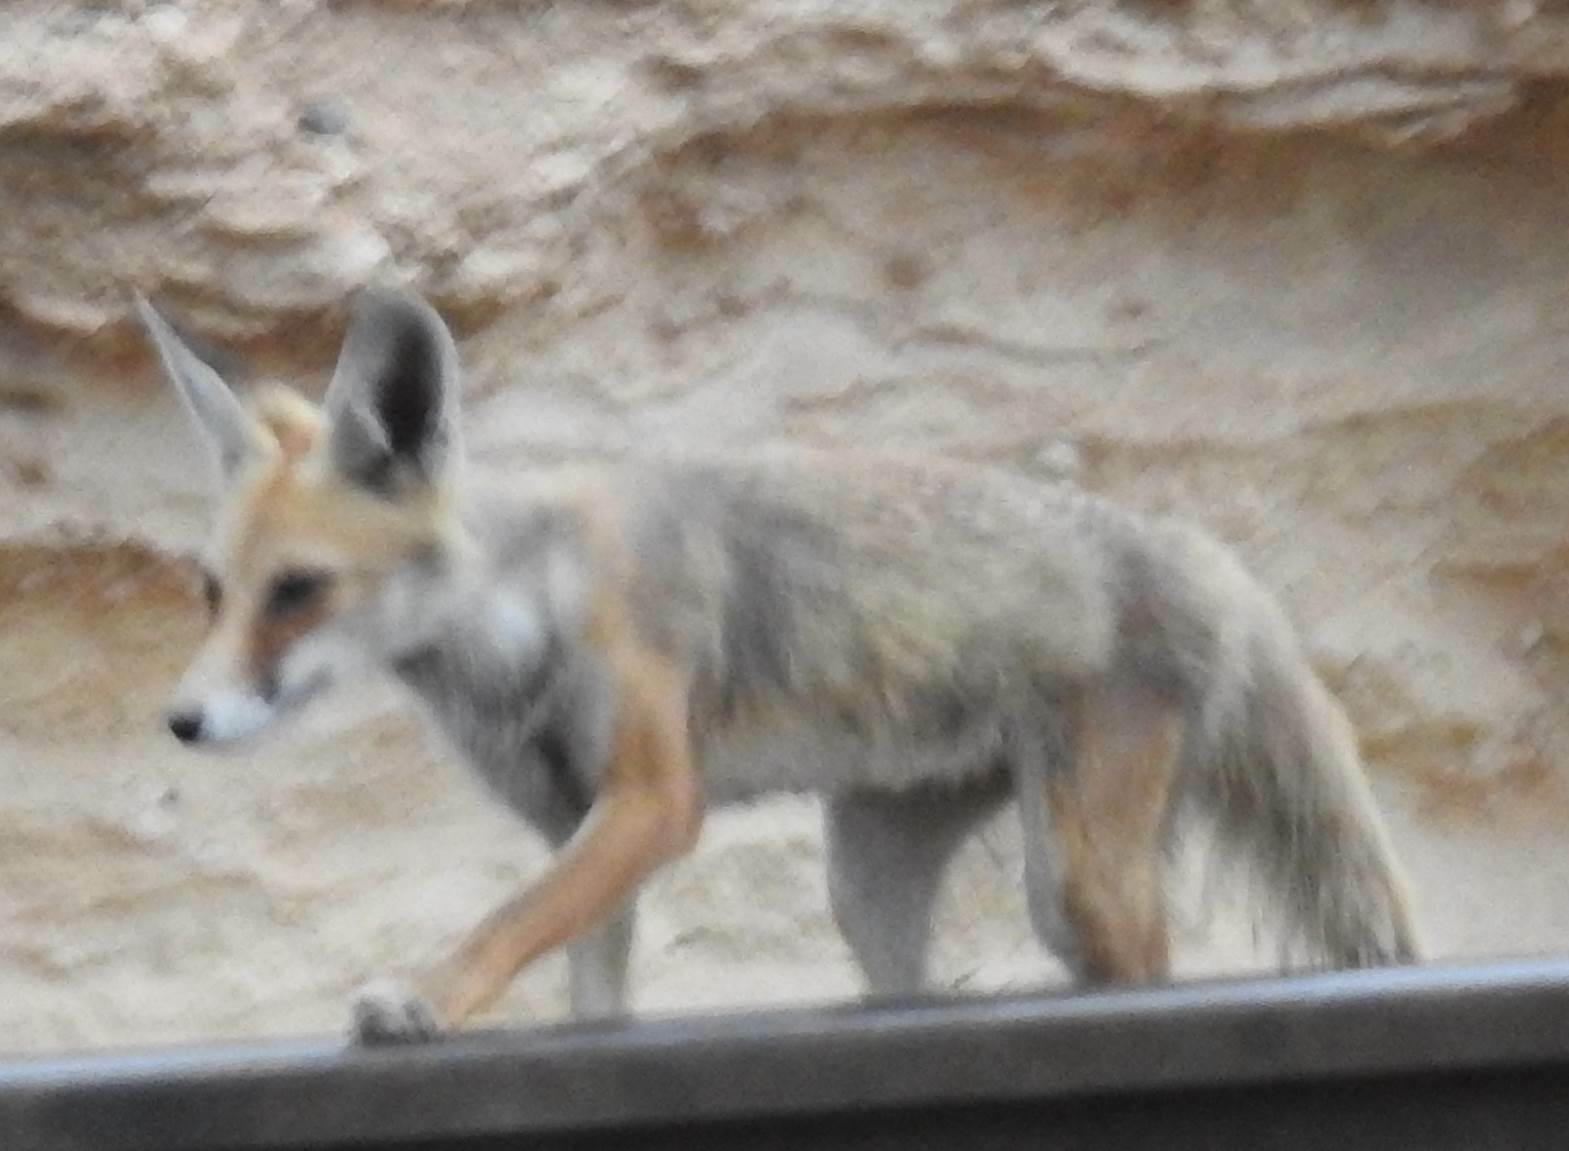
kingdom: Animalia
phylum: Chordata
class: Mammalia
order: Carnivora
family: Canidae
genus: Vulpes
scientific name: Vulpes vulpes
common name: Red fox
